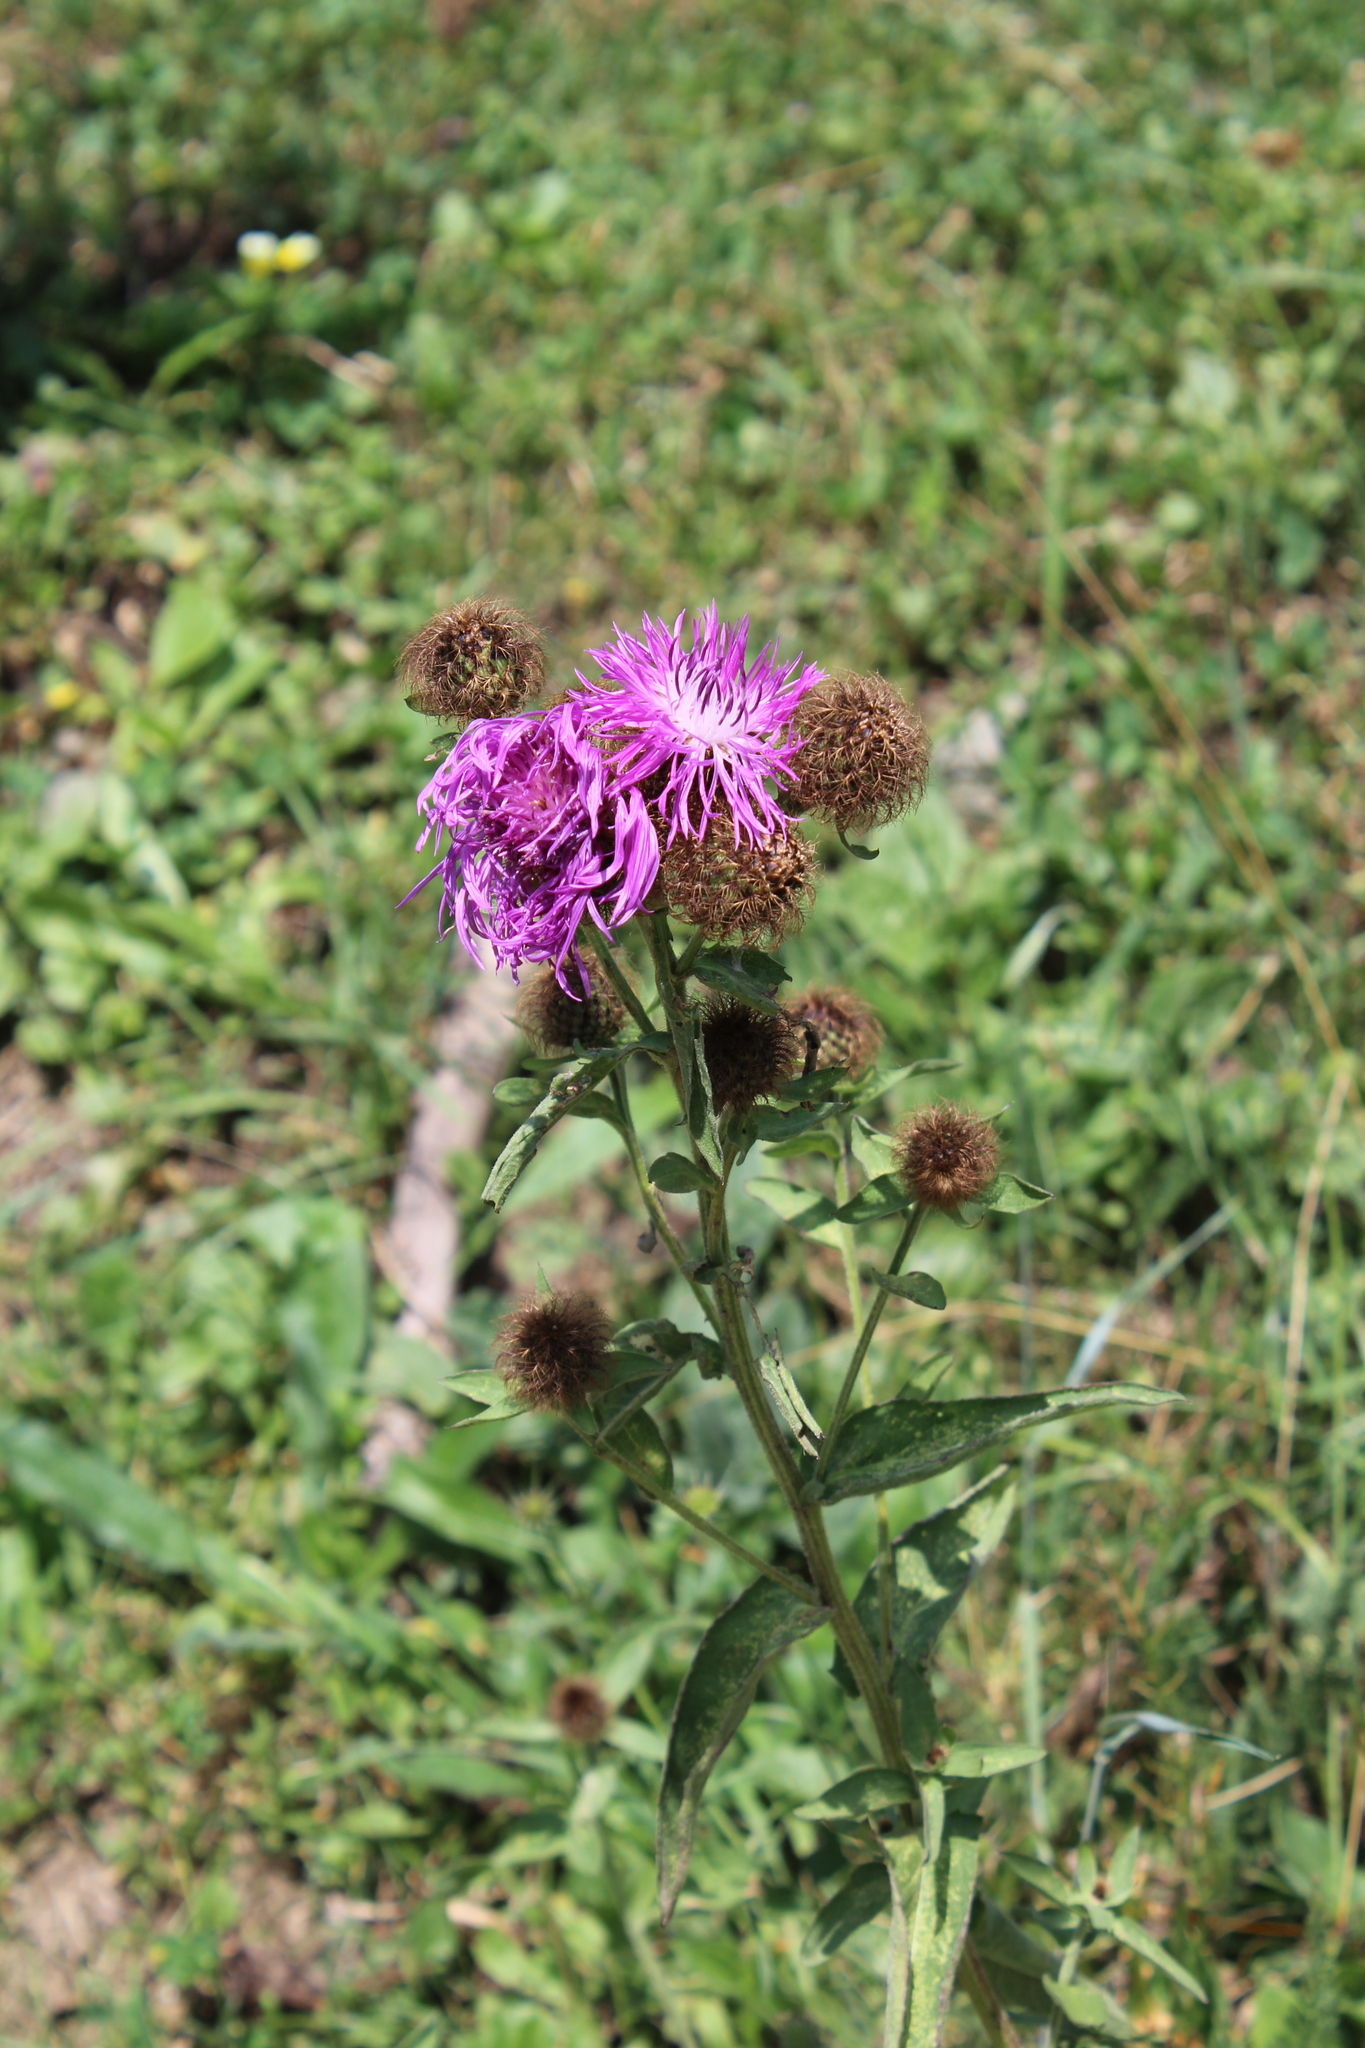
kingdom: Plantae
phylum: Tracheophyta
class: Magnoliopsida
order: Asterales
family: Asteraceae
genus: Centaurea
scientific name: Centaurea phrygia
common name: Wig knapweed
